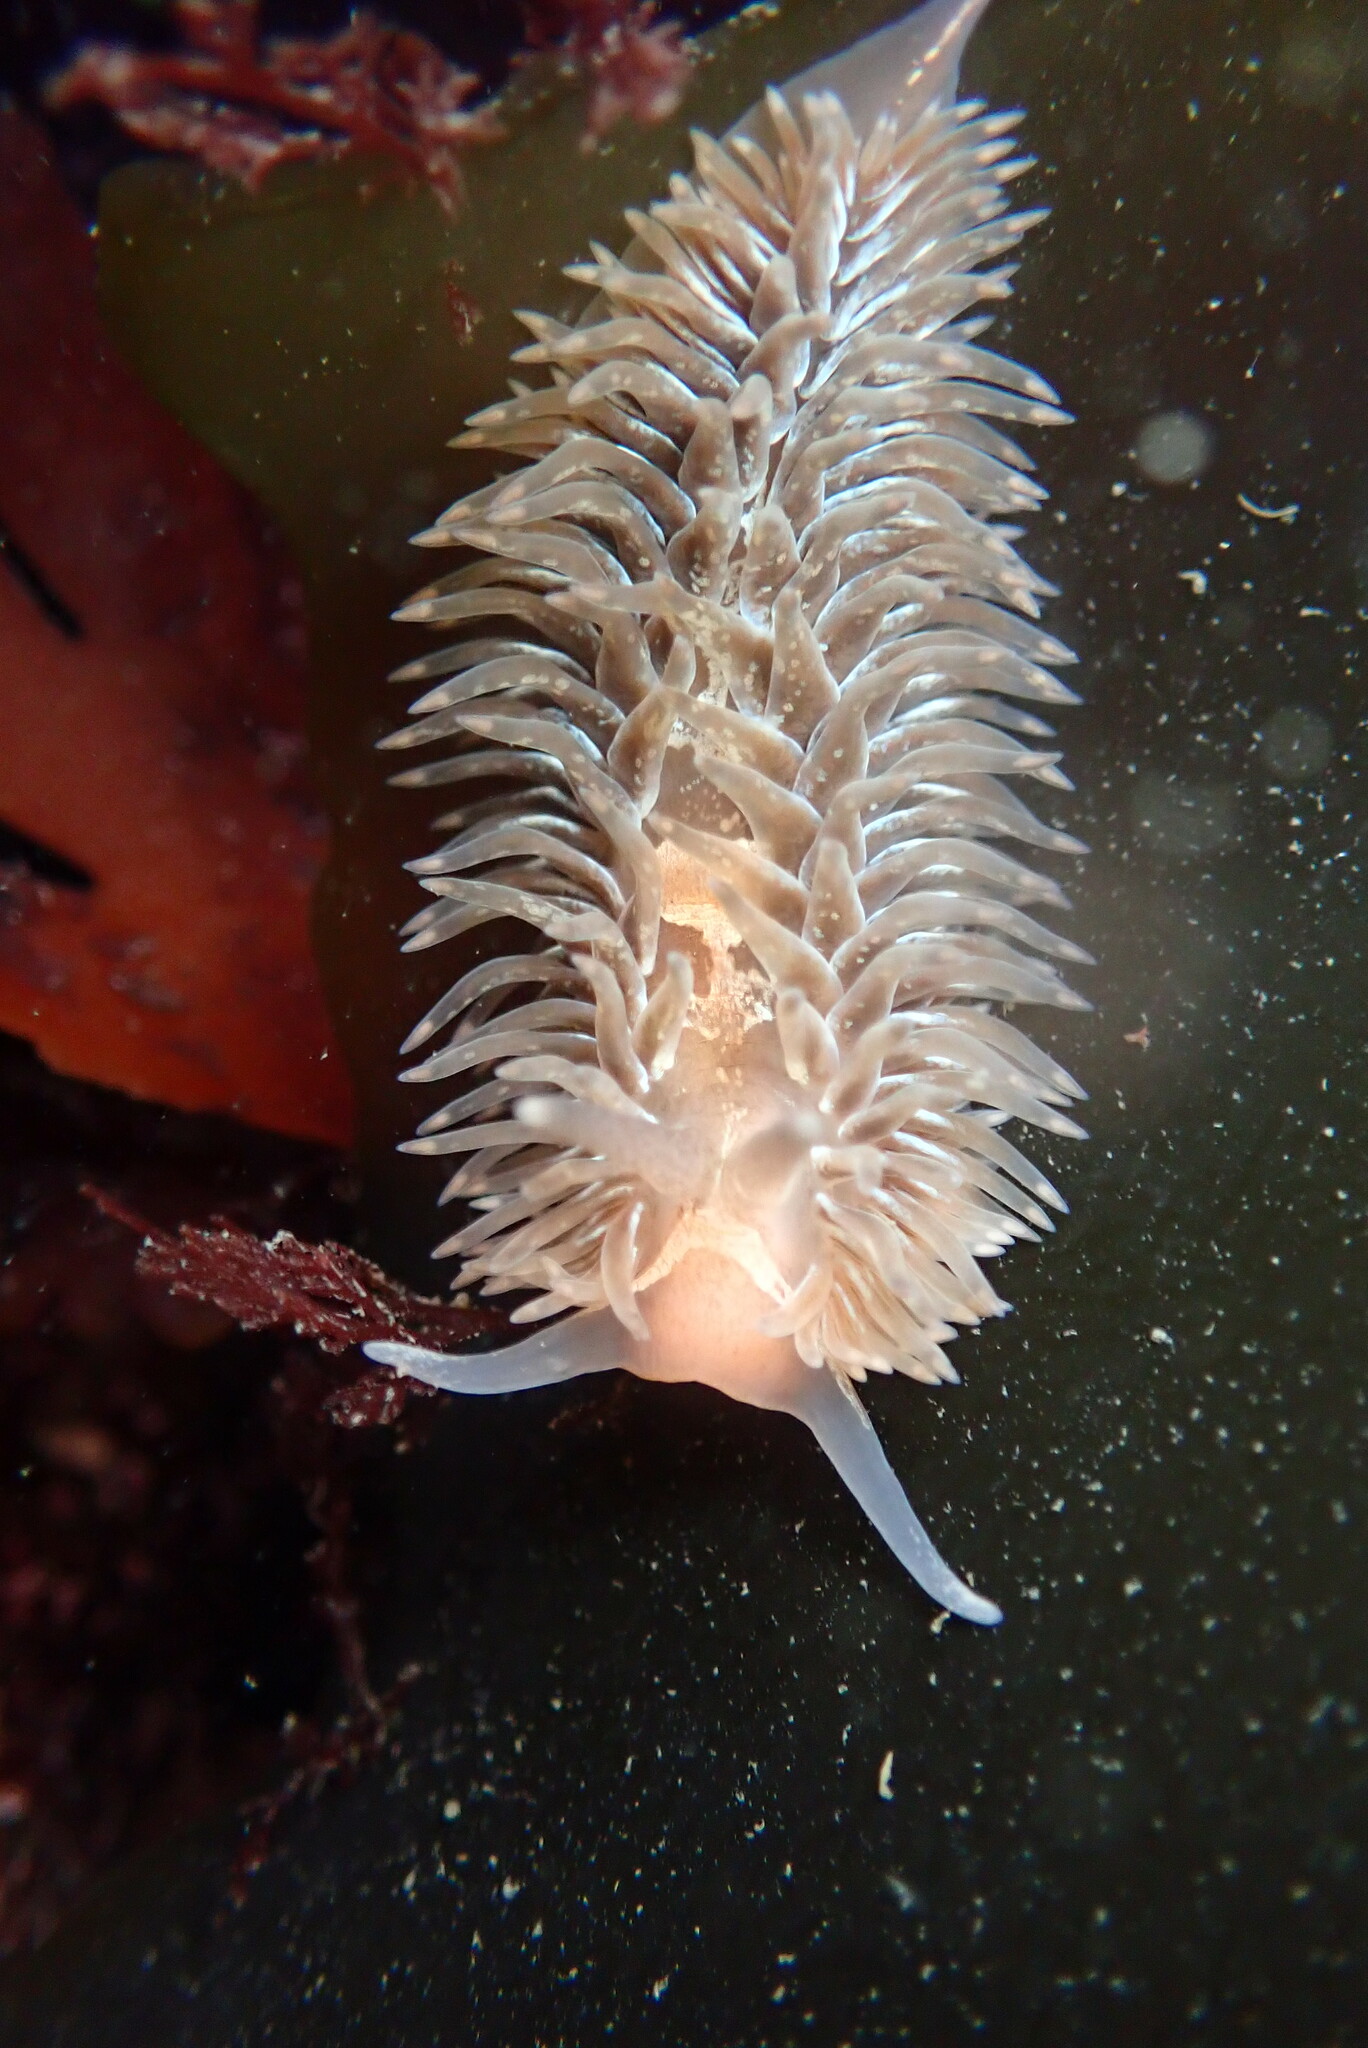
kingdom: Animalia
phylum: Mollusca
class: Gastropoda
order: Nudibranchia
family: Aeolidiidae
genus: Aeolidia
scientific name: Aeolidia loui
